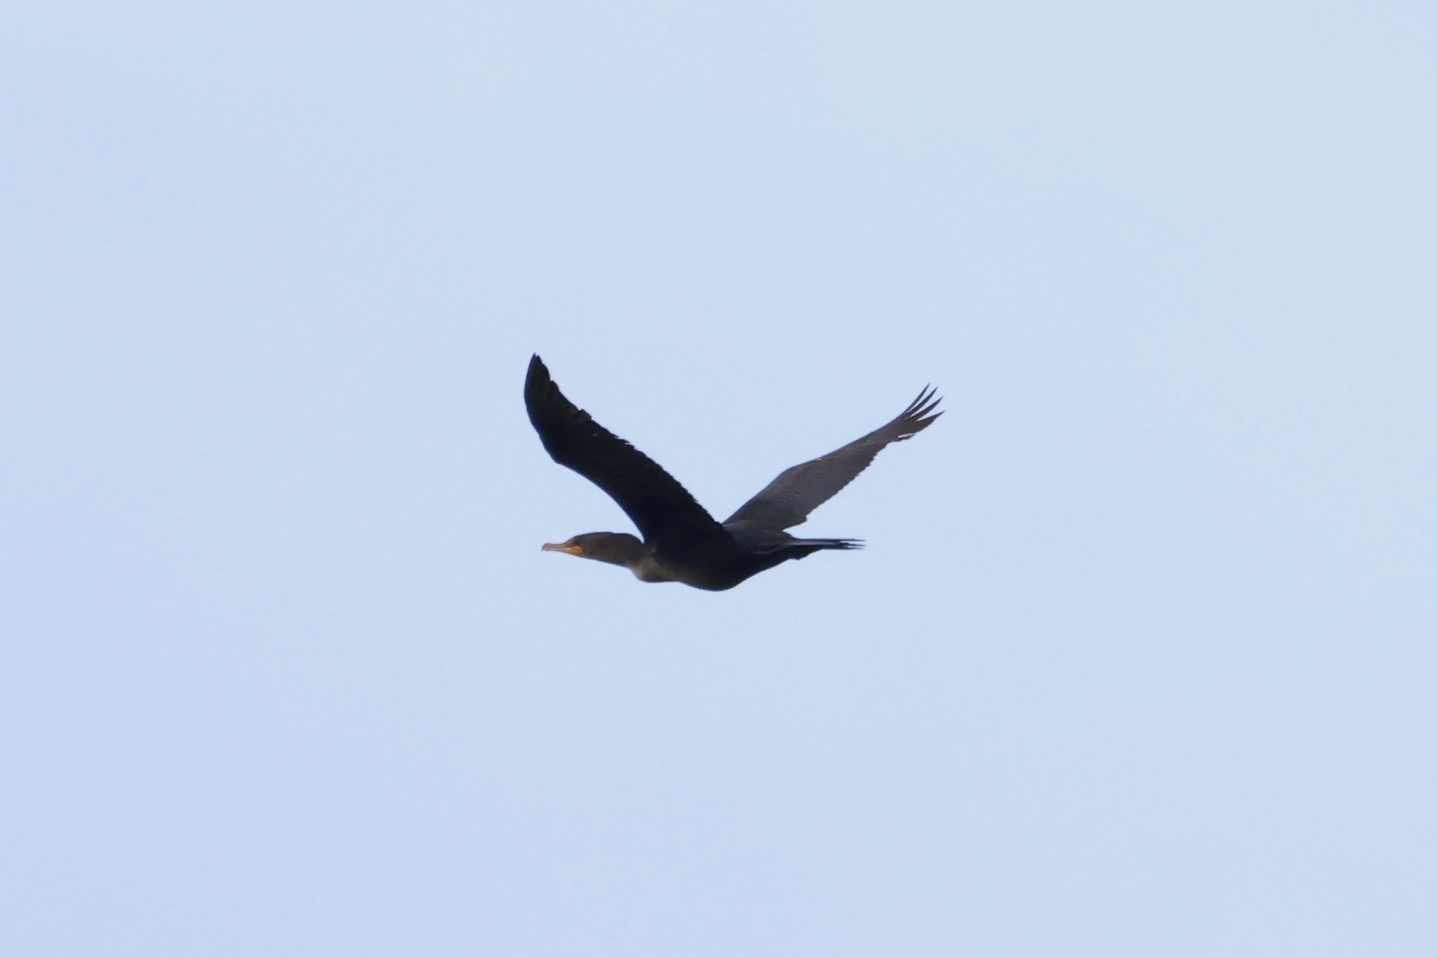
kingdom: Animalia
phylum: Chordata
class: Aves
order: Suliformes
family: Phalacrocoracidae
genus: Phalacrocorax
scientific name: Phalacrocorax auritus
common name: Double-crested cormorant
